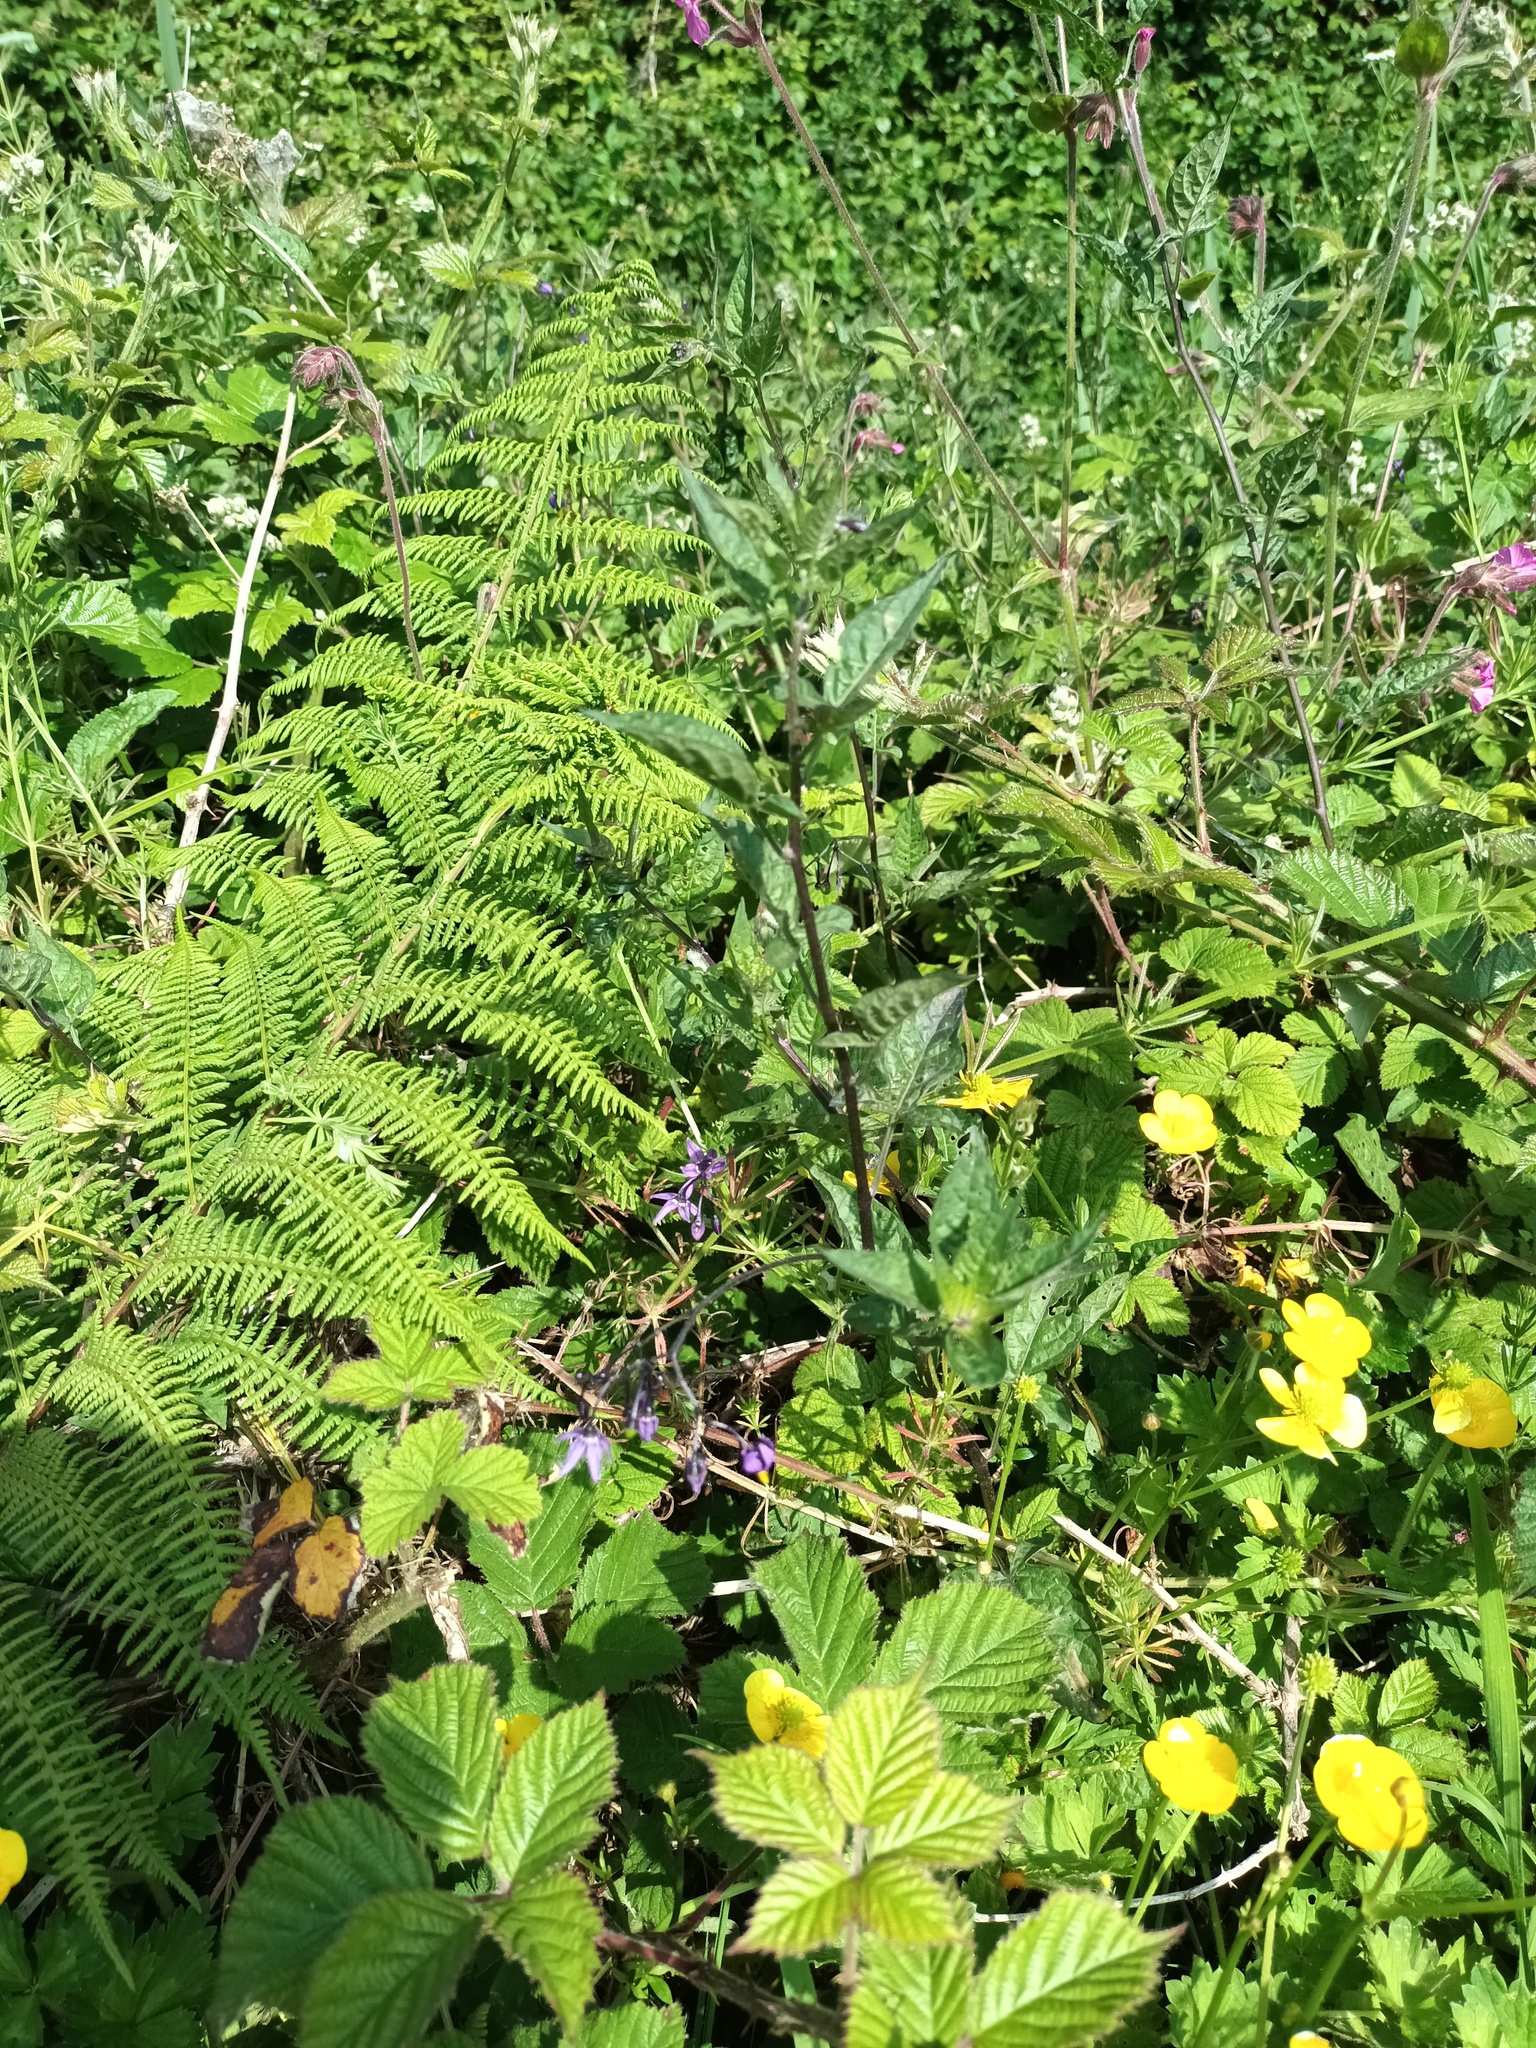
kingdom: Plantae
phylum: Tracheophyta
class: Magnoliopsida
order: Solanales
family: Solanaceae
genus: Solanum
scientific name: Solanum dulcamara
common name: Climbing nightshade
